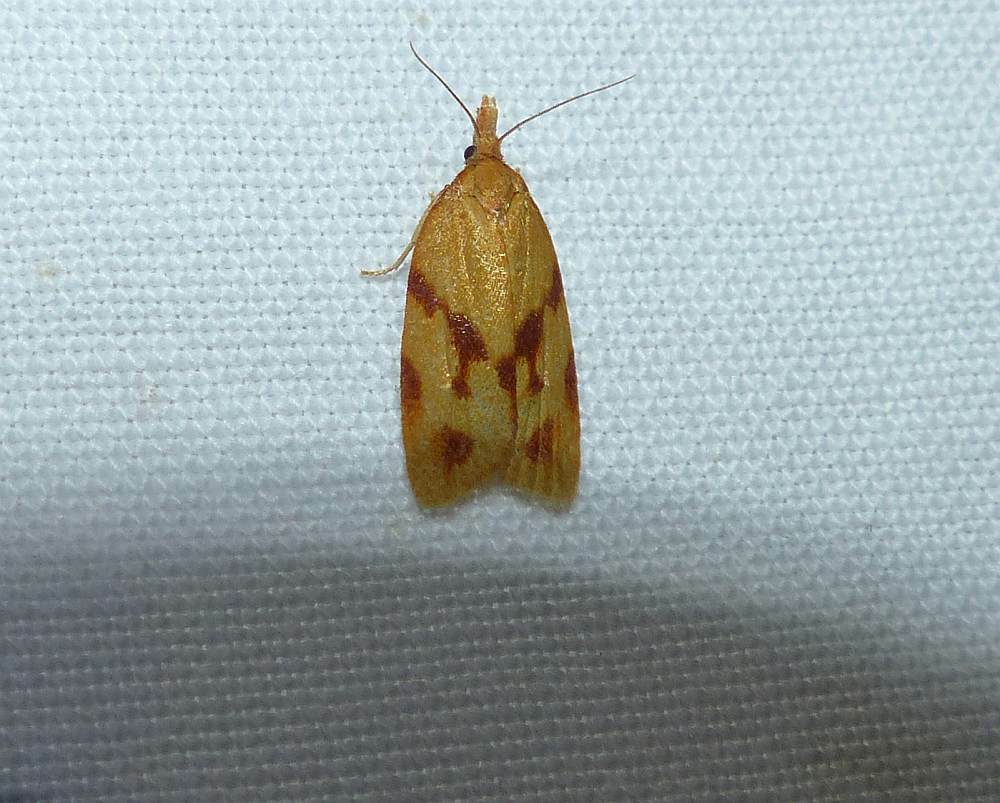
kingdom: Animalia
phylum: Arthropoda
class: Insecta
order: Lepidoptera
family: Tortricidae
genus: Sparganothis
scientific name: Sparganothis unifasciana
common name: One-lined sparganothis moth
